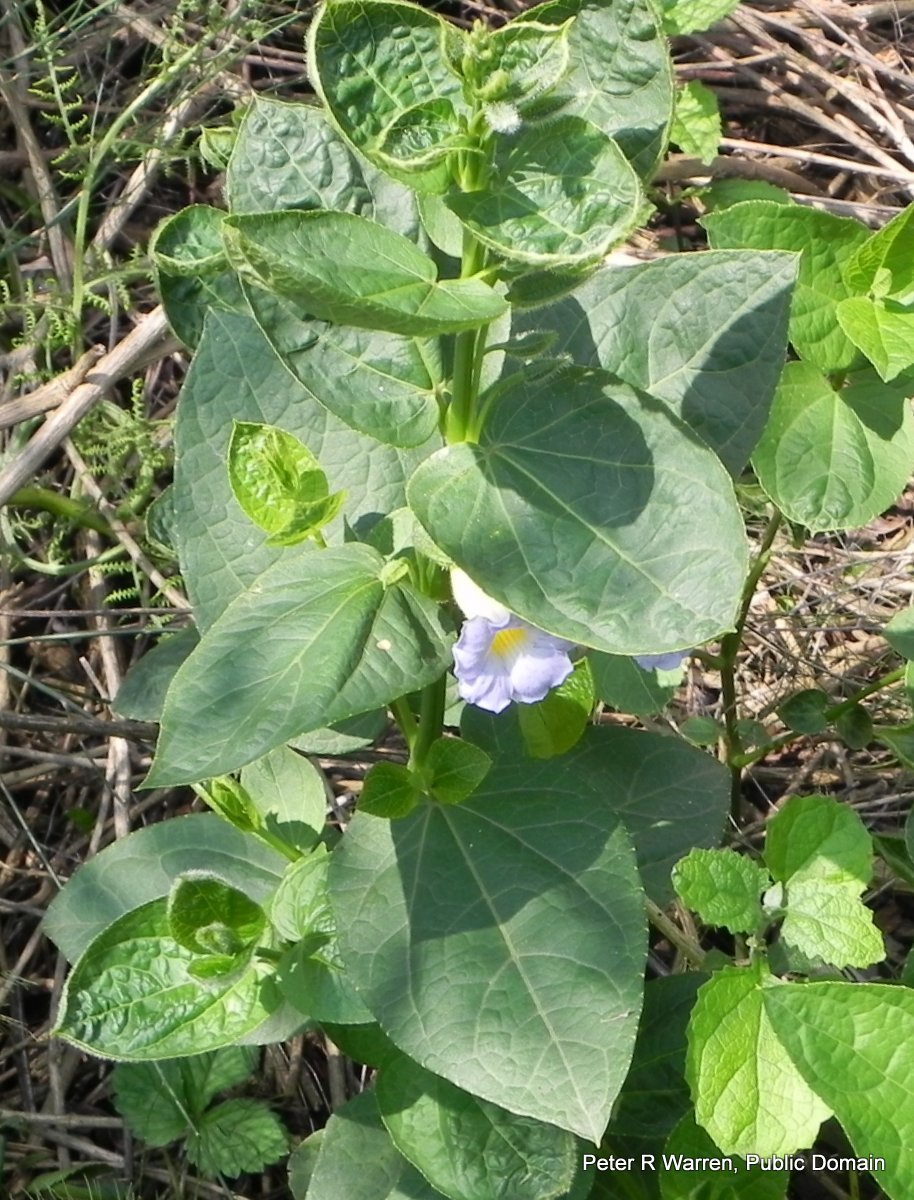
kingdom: Plantae
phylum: Tracheophyta
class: Magnoliopsida
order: Lamiales
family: Acanthaceae
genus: Thunbergia
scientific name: Thunbergia natalensis
